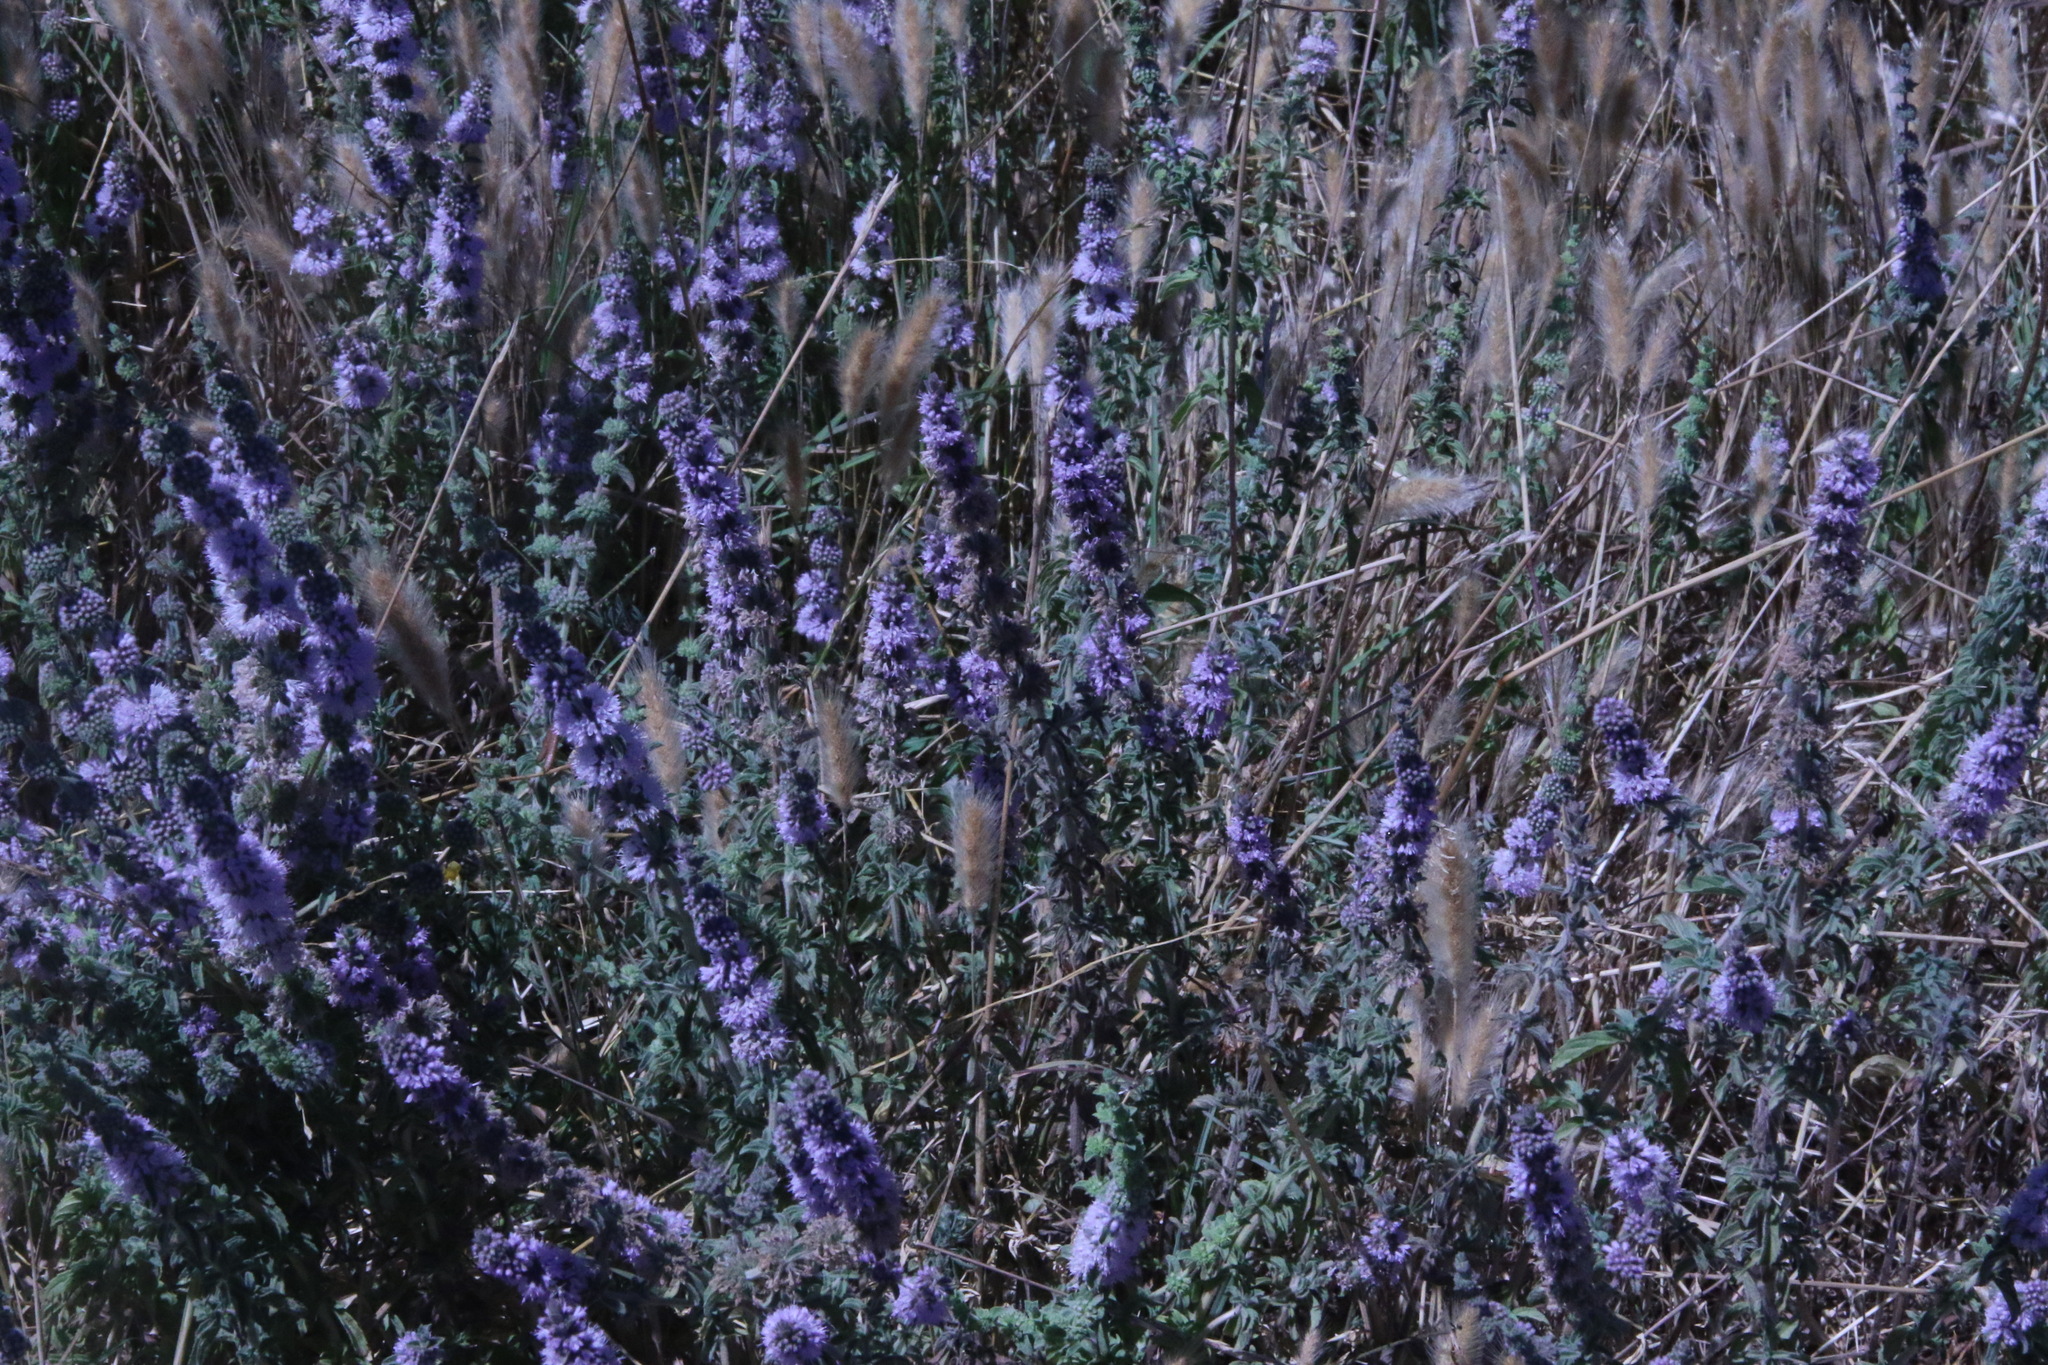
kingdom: Plantae
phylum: Tracheophyta
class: Magnoliopsida
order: Lamiales
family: Lamiaceae
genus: Mentha
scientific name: Mentha pulegium
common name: Pennyroyal
